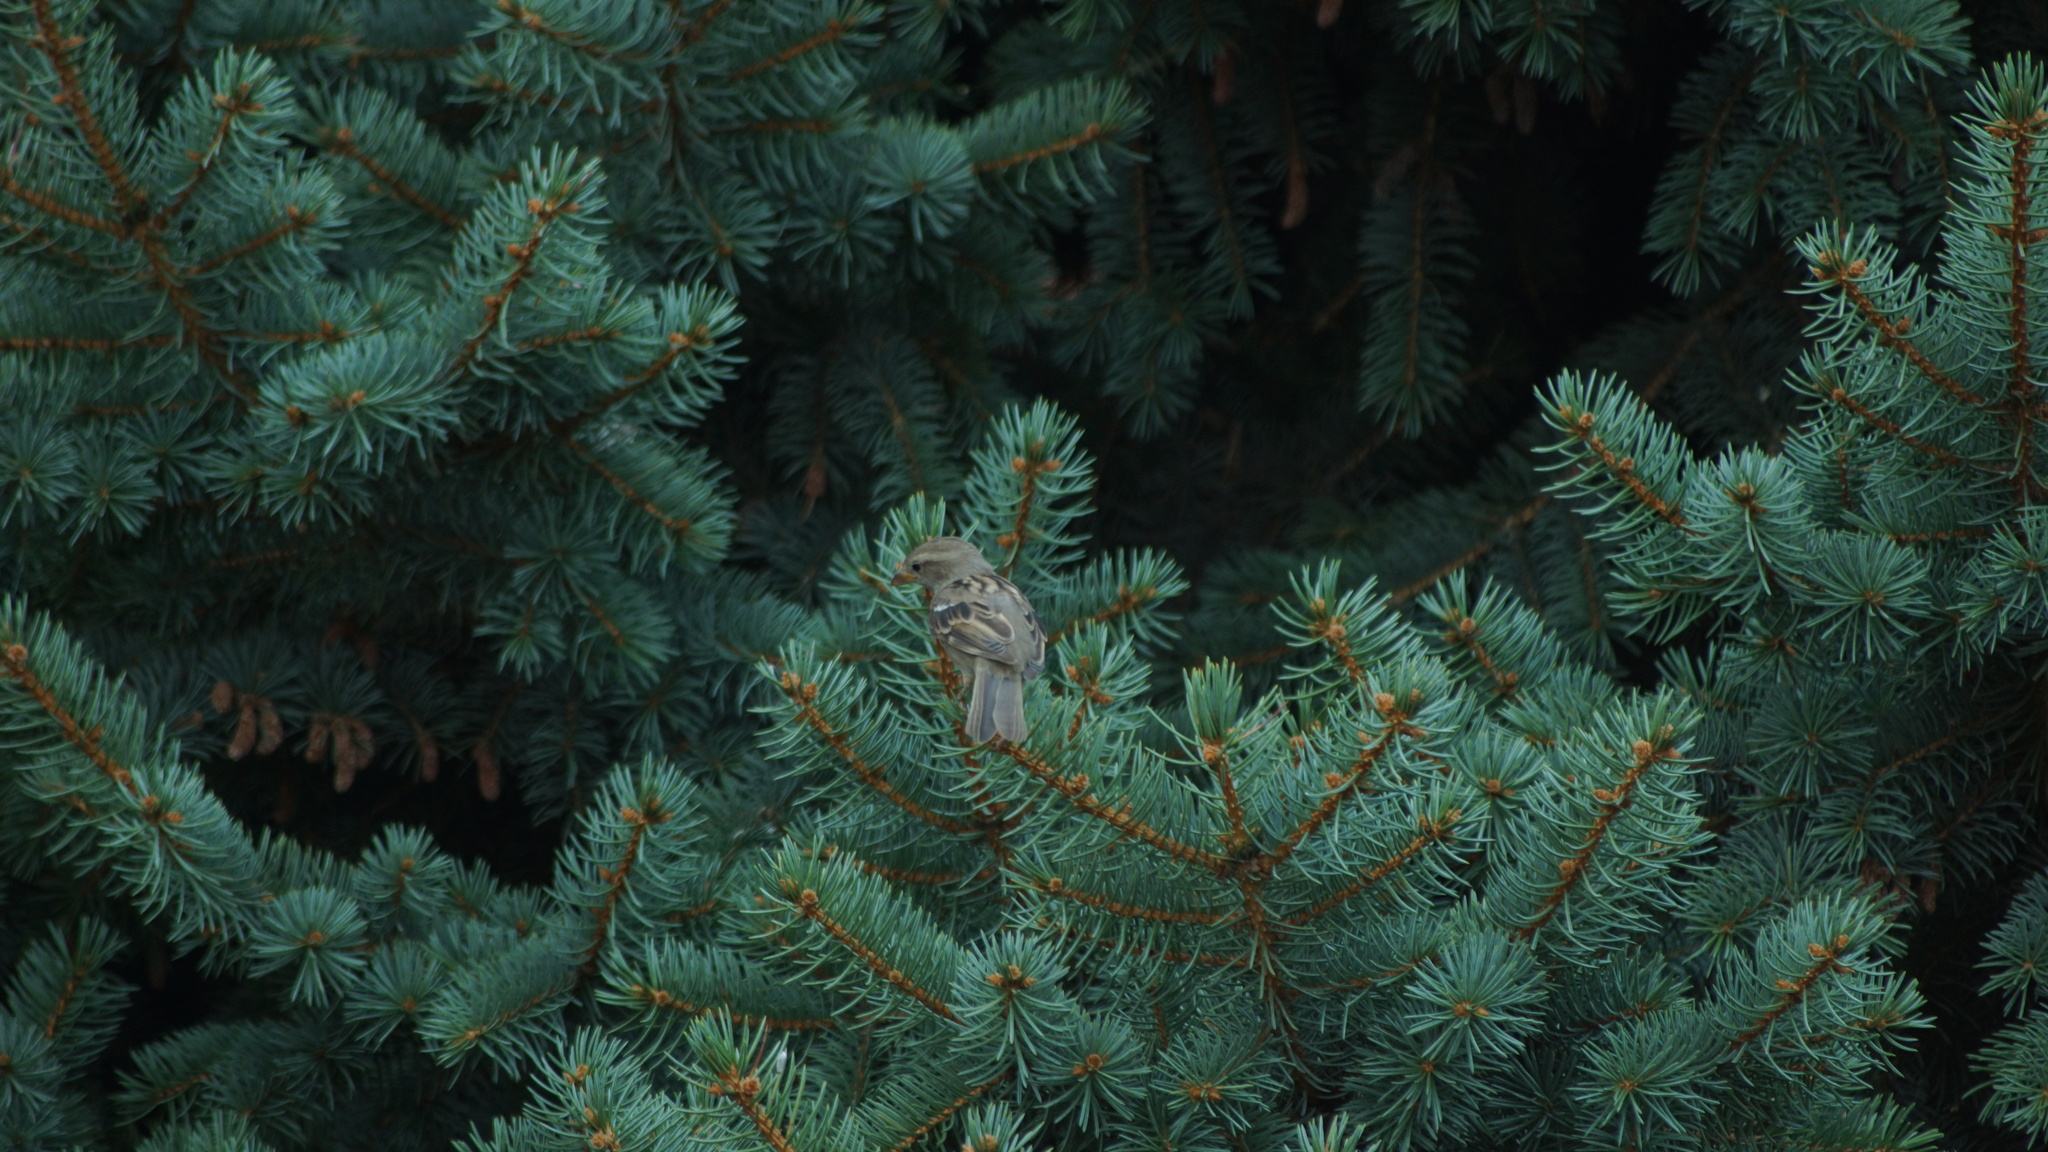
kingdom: Animalia
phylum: Chordata
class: Aves
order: Passeriformes
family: Passeridae
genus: Passer
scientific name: Passer domesticus
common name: House sparrow
